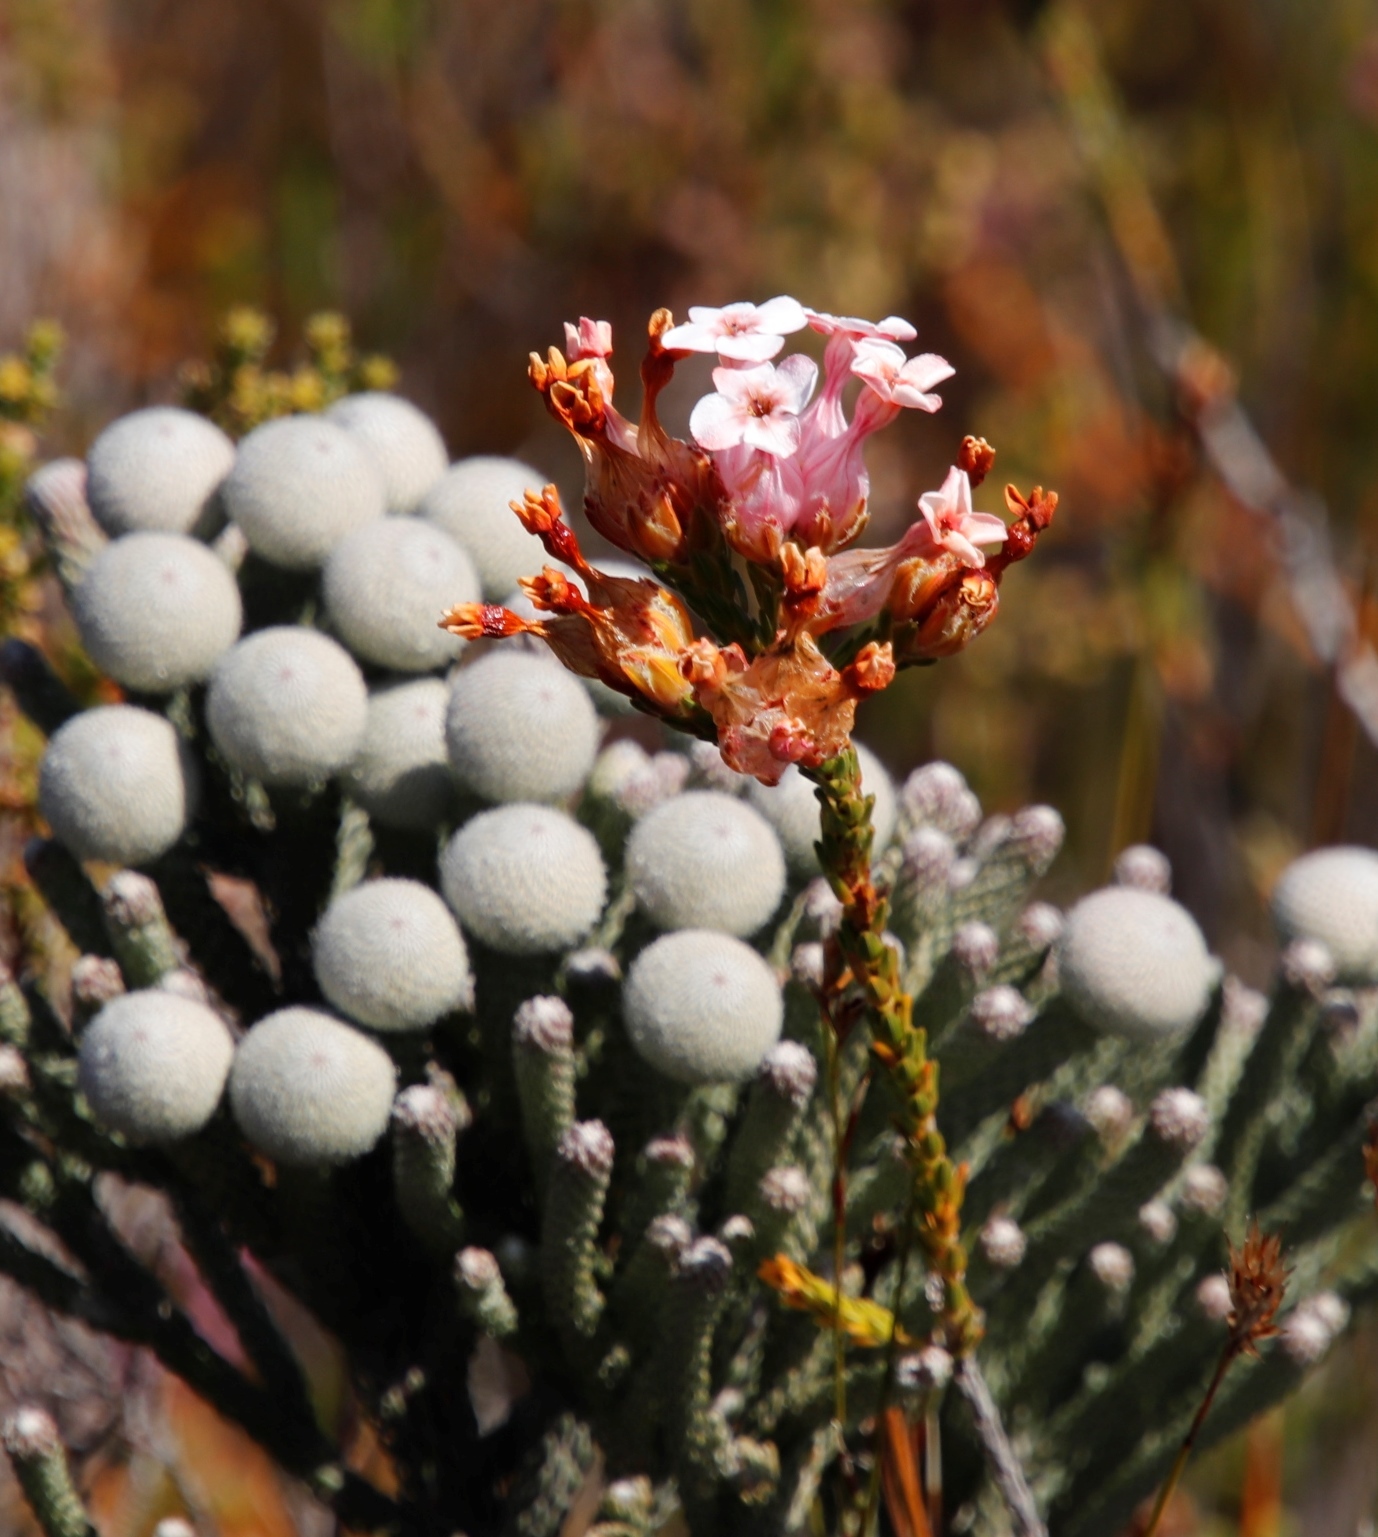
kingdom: Plantae
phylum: Tracheophyta
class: Magnoliopsida
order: Ericales
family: Ericaceae
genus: Erica
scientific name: Erica ampullacea
